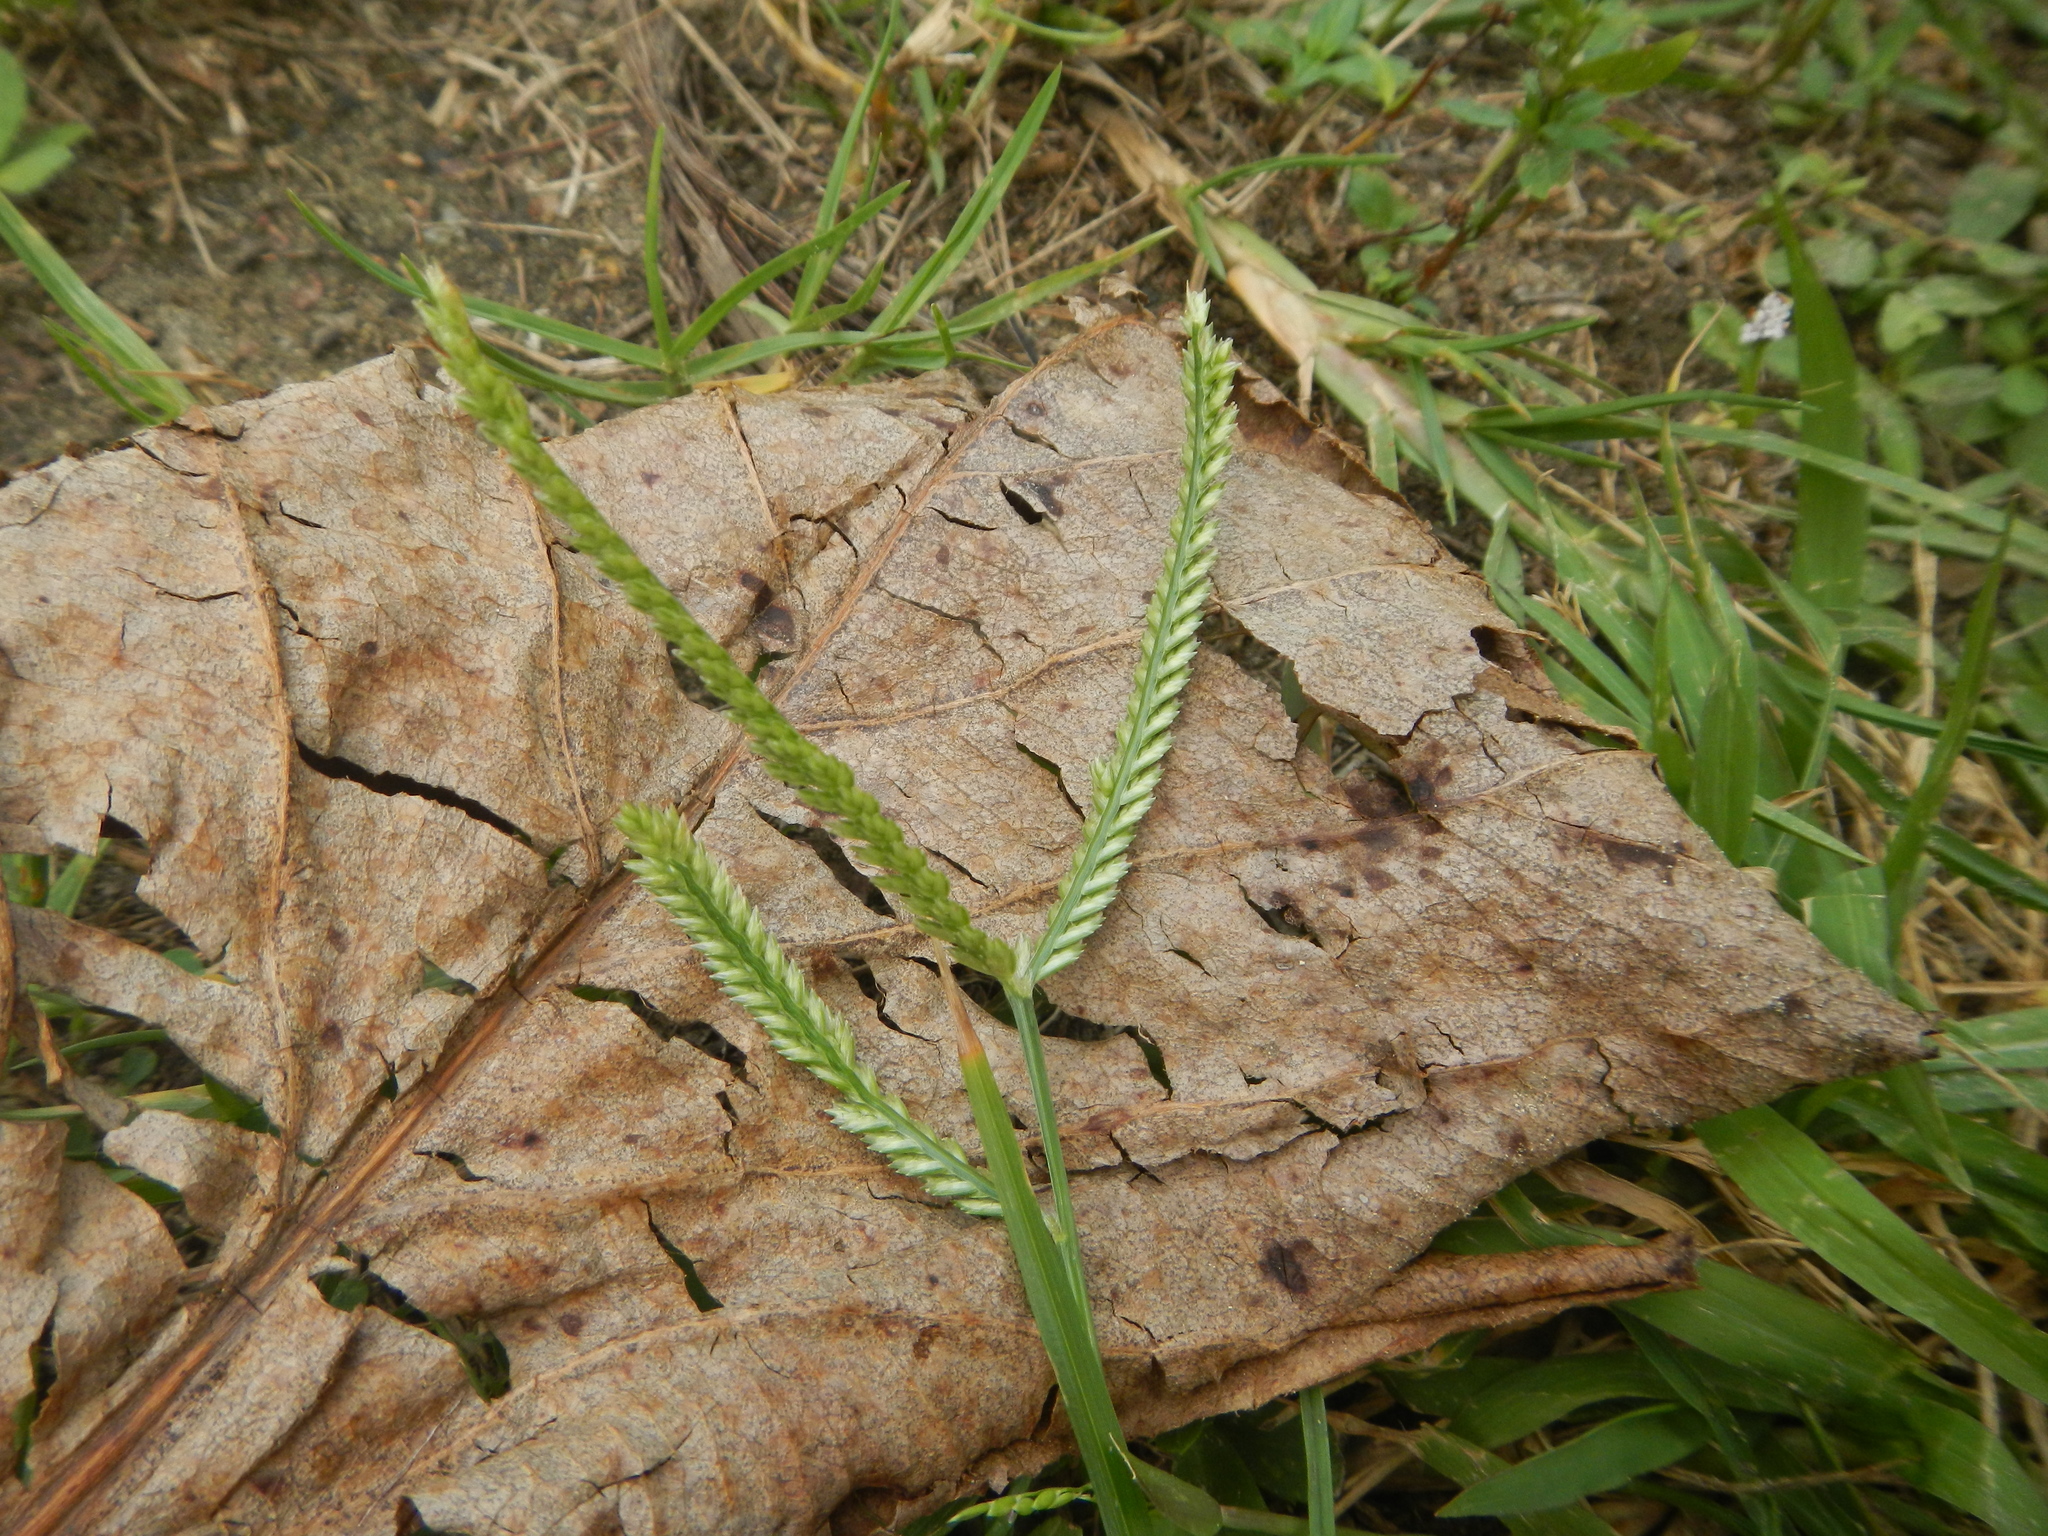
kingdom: Plantae
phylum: Tracheophyta
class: Liliopsida
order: Poales
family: Poaceae
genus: Eleusine
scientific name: Eleusine indica
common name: Yard-grass
